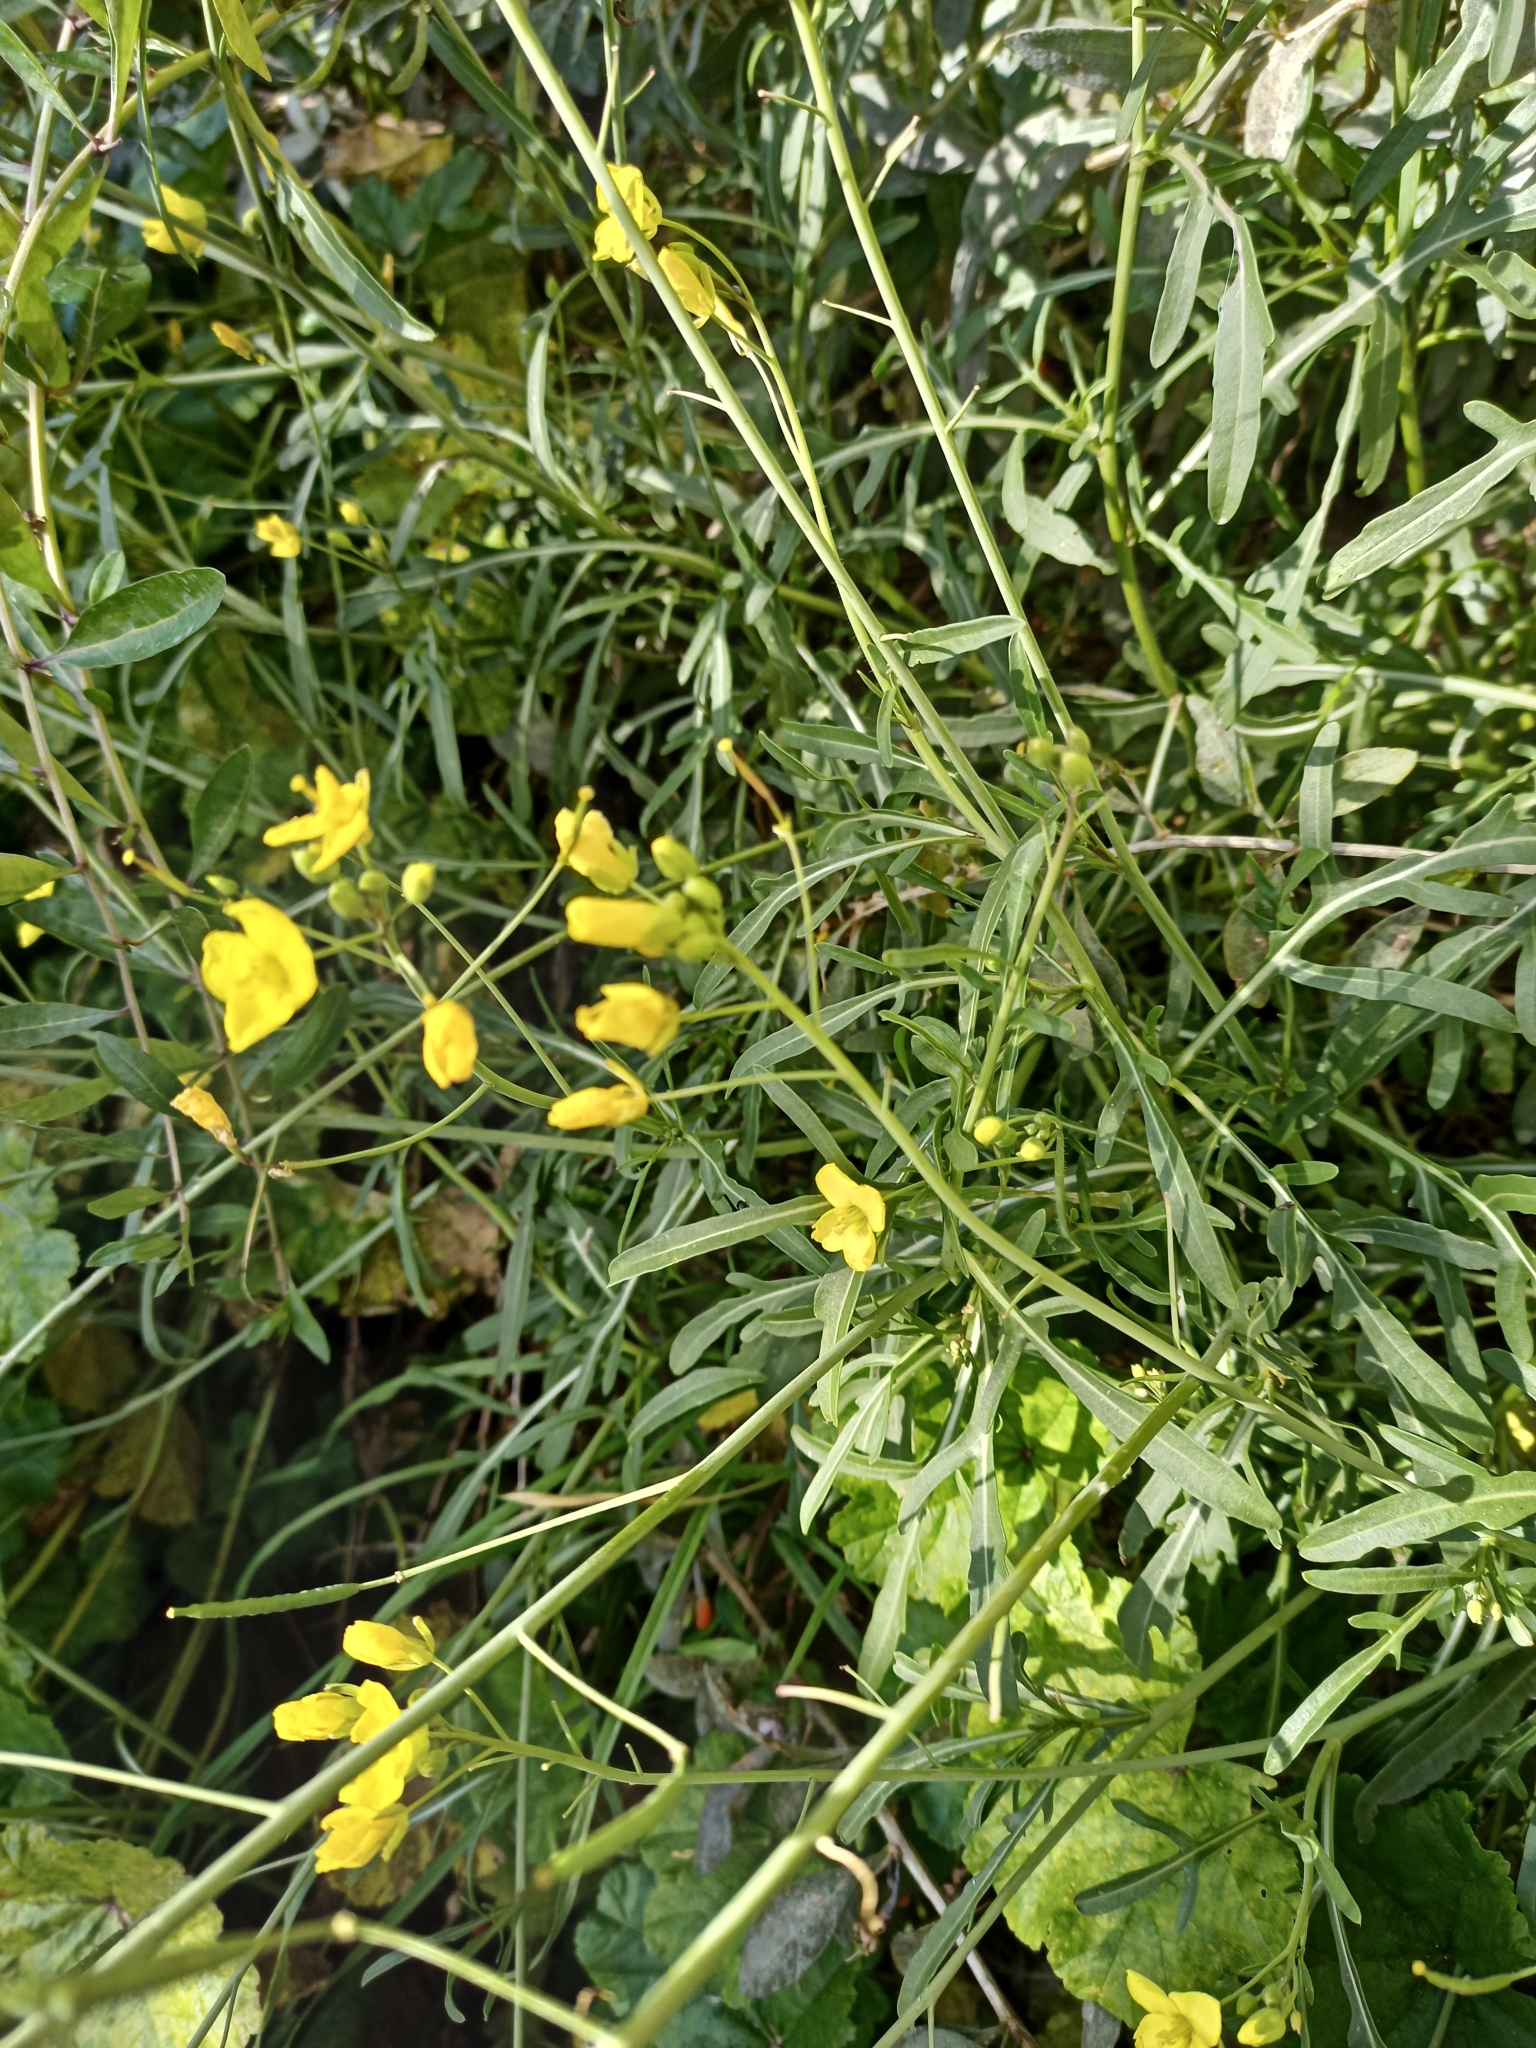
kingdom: Plantae
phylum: Tracheophyta
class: Magnoliopsida
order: Brassicales
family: Brassicaceae
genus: Diplotaxis
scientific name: Diplotaxis tenuifolia
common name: Perennial wall-rocket
